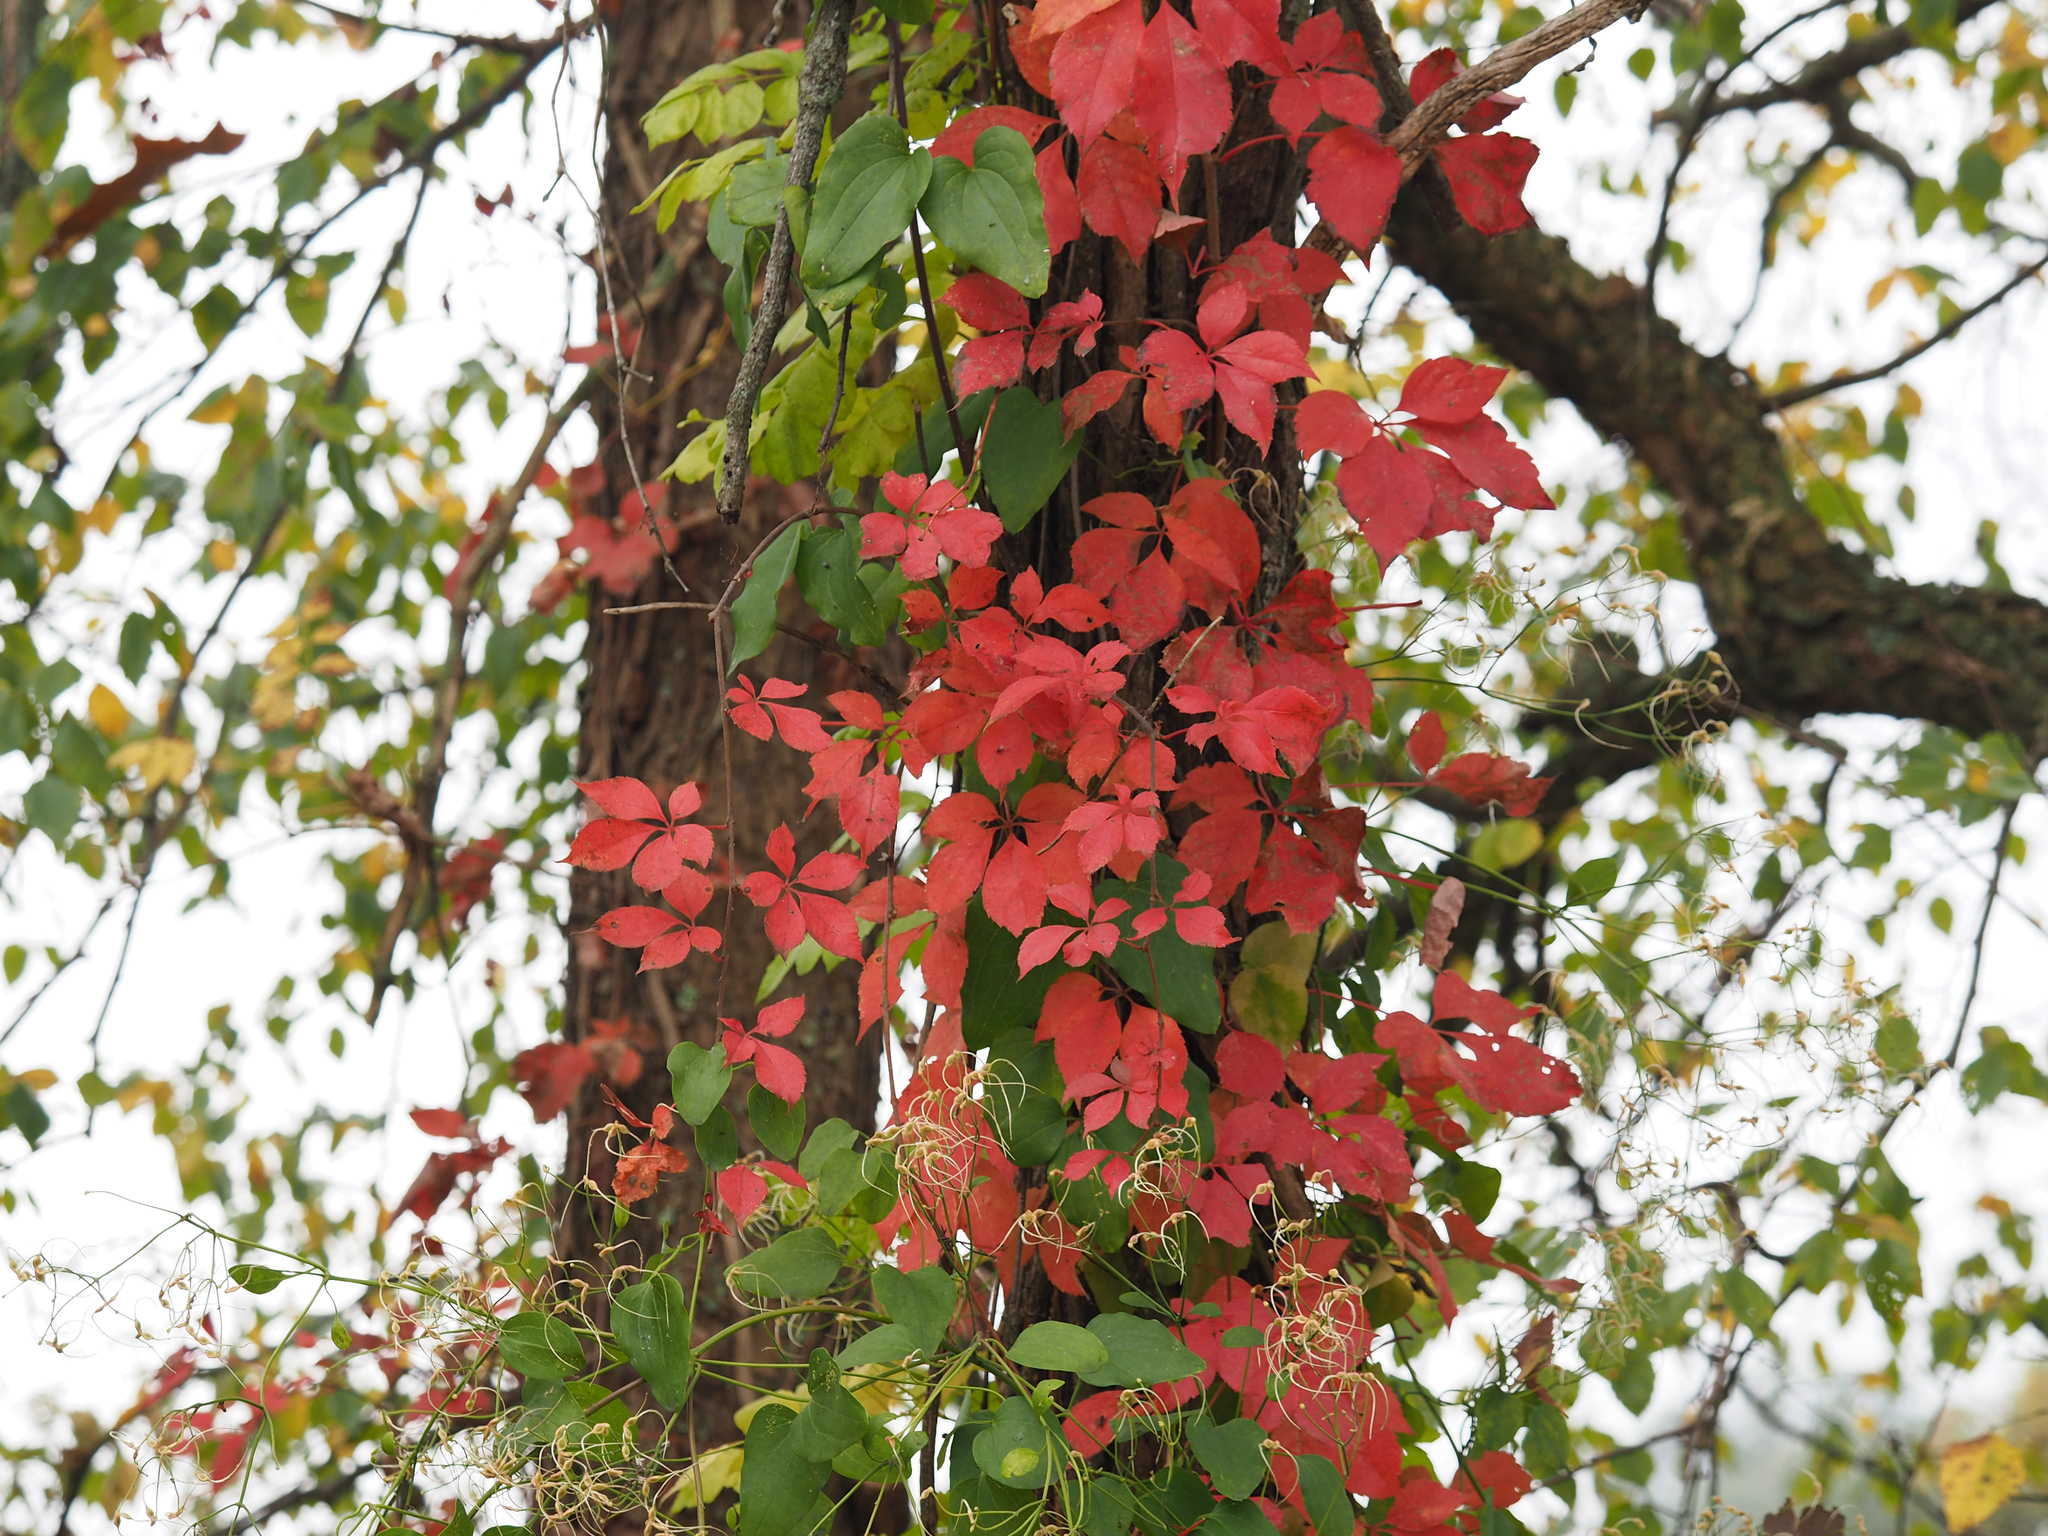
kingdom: Plantae
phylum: Tracheophyta
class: Magnoliopsida
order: Vitales
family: Vitaceae
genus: Parthenocissus
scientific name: Parthenocissus quinquefolia
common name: Virginia-creeper
